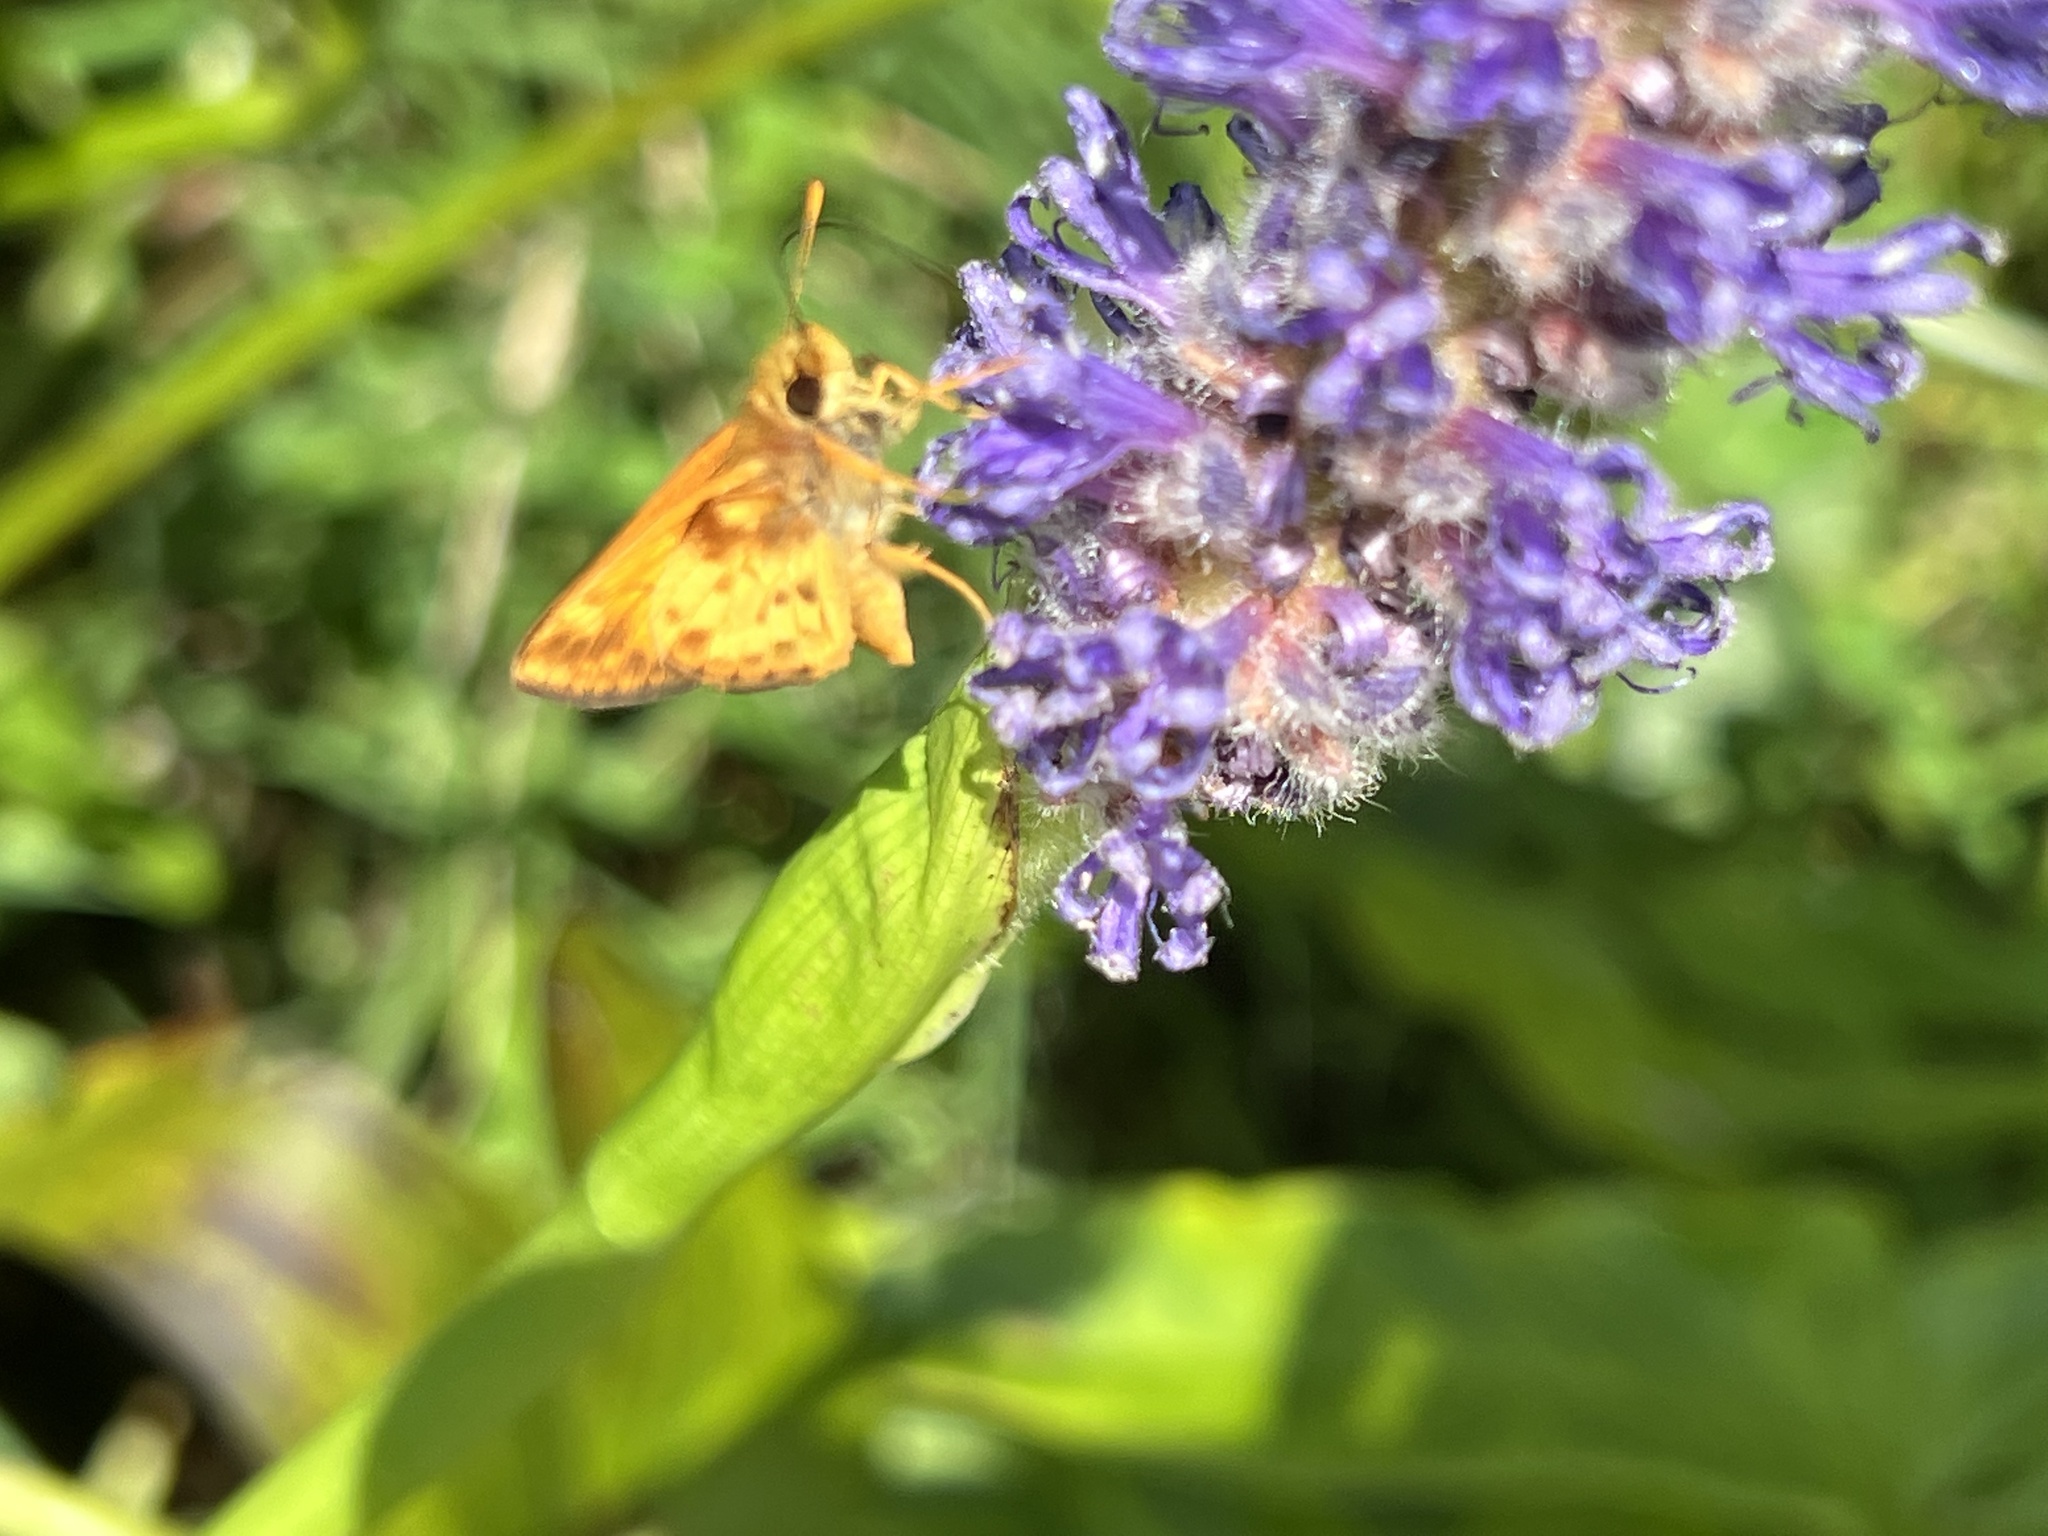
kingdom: Animalia
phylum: Arthropoda
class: Insecta
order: Lepidoptera
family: Hesperiidae
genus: Lon
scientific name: Lon zabulon
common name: Zabulon skipper
